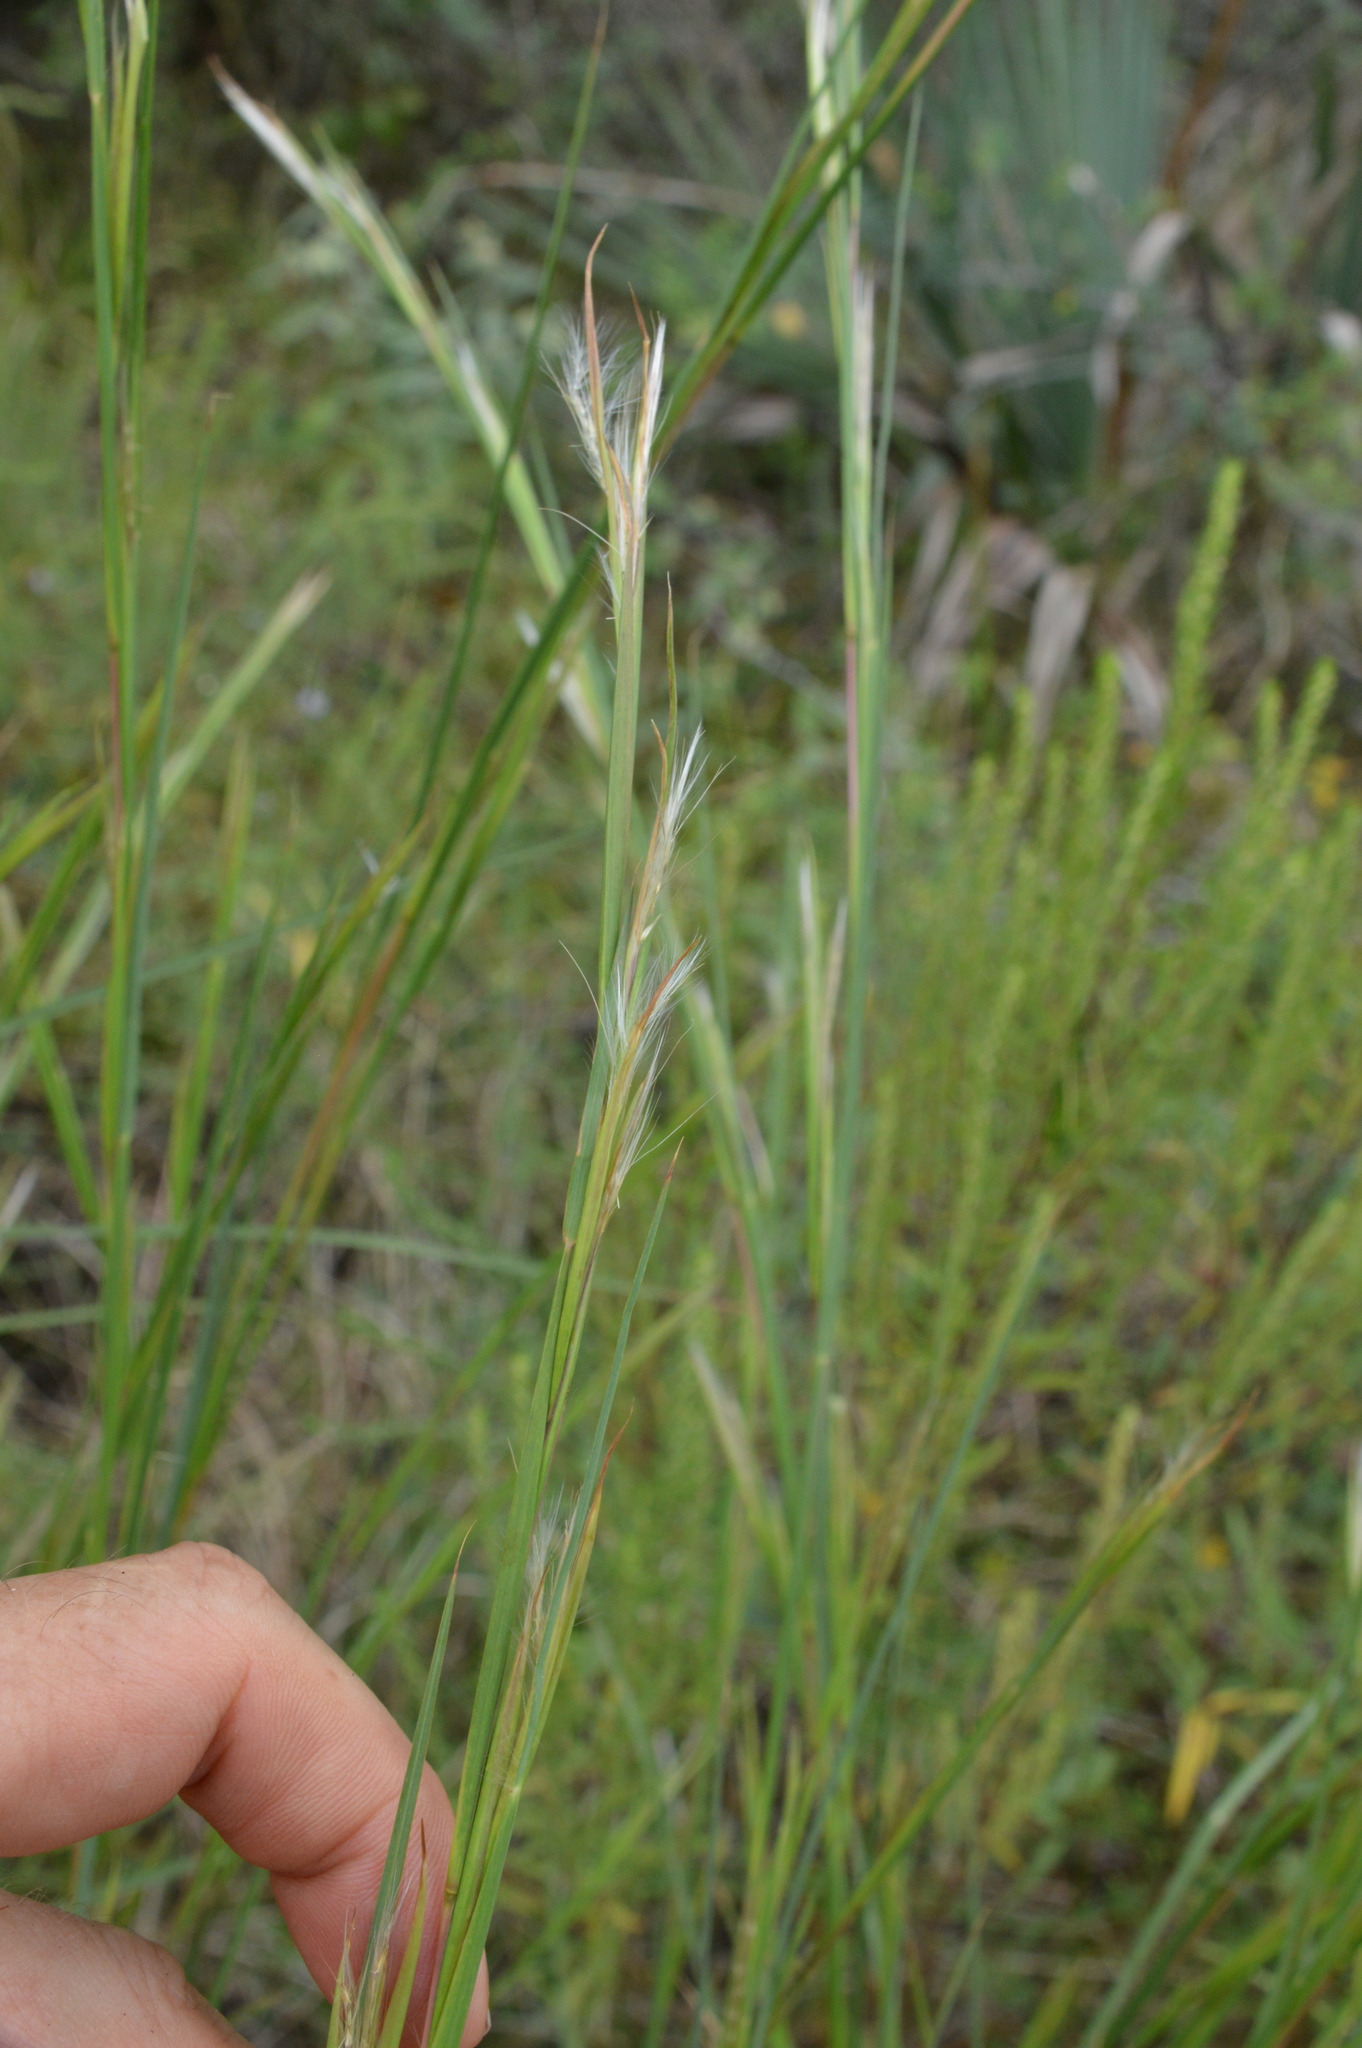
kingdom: Plantae
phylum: Tracheophyta
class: Liliopsida
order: Poales
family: Poaceae
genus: Andropogon
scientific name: Andropogon virginicus
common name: Broomsedge bluestem
